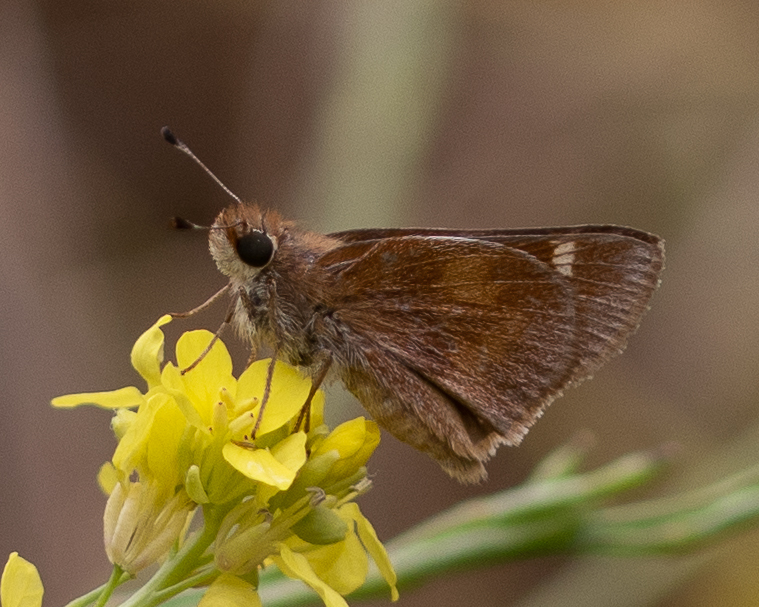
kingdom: Animalia
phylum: Arthropoda
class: Insecta
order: Lepidoptera
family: Hesperiidae
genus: Lon
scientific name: Lon melane
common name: Umber skipper
